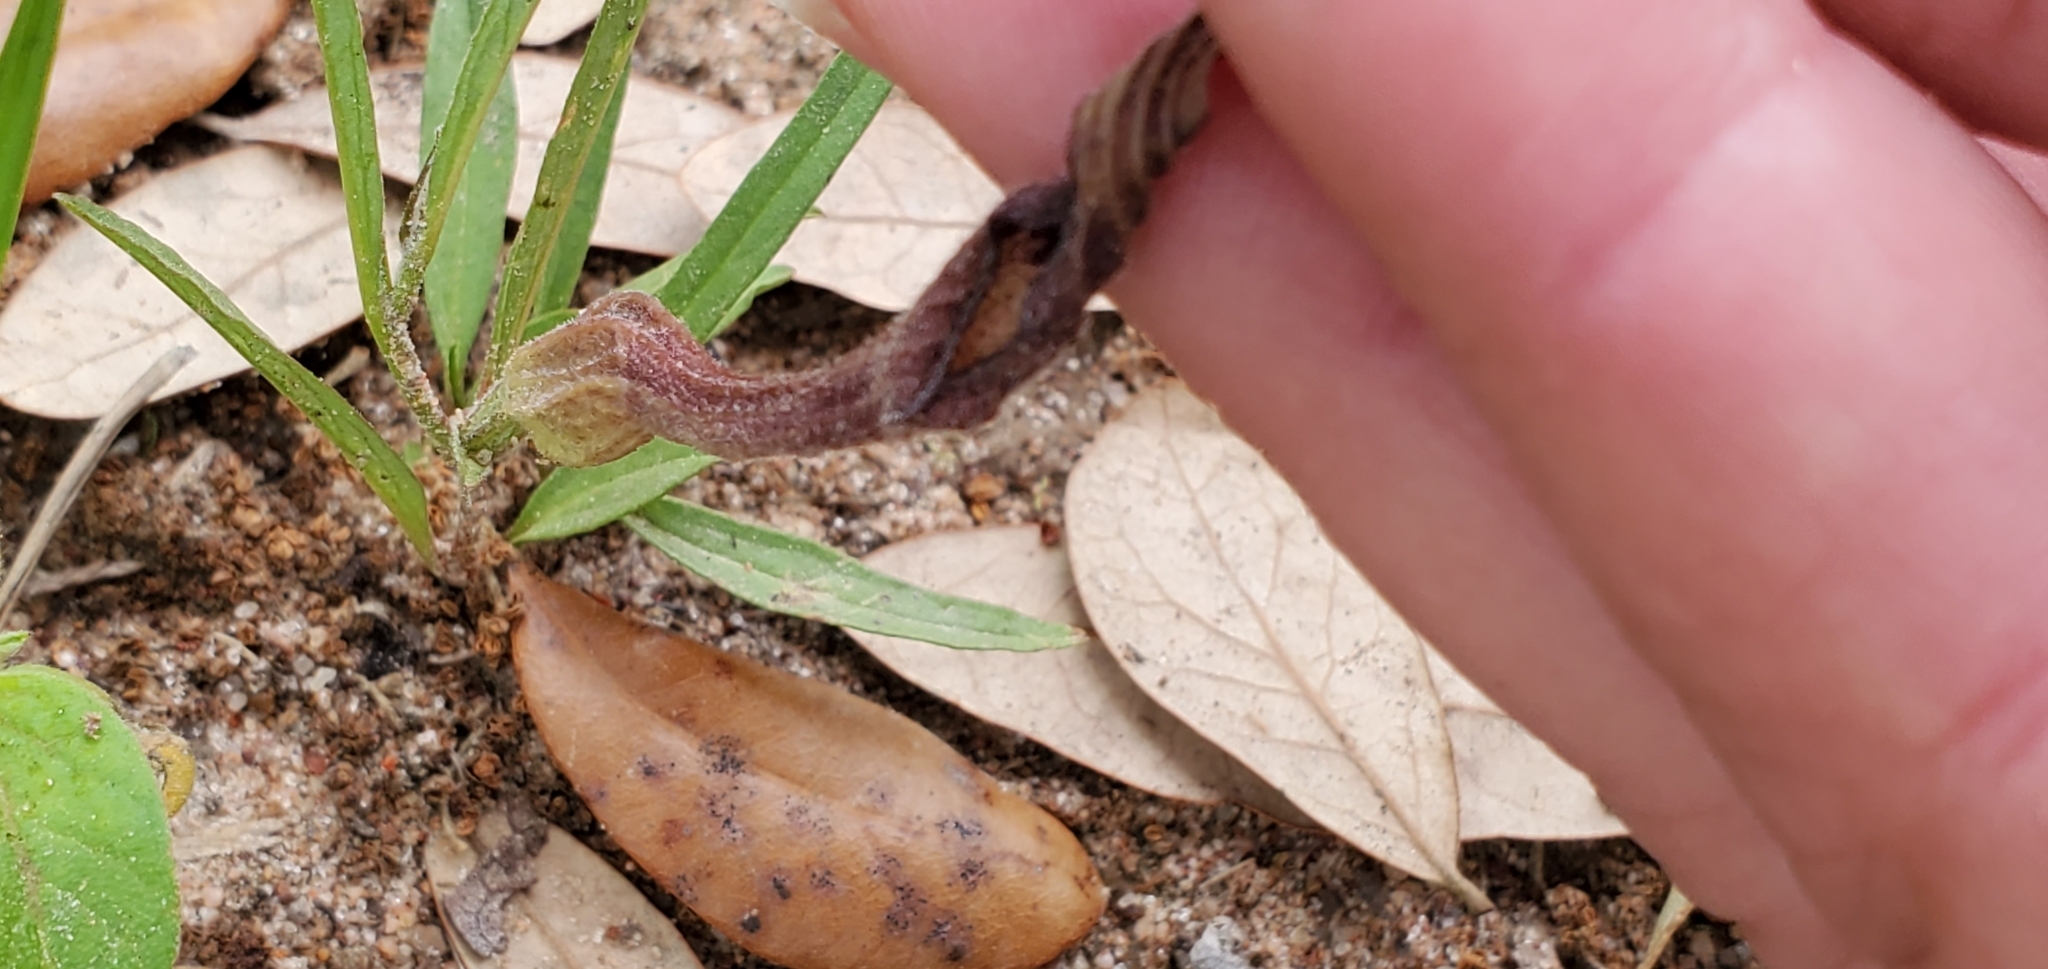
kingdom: Plantae
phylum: Tracheophyta
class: Magnoliopsida
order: Piperales
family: Aristolochiaceae
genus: Aristolochia
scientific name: Aristolochia erecta
